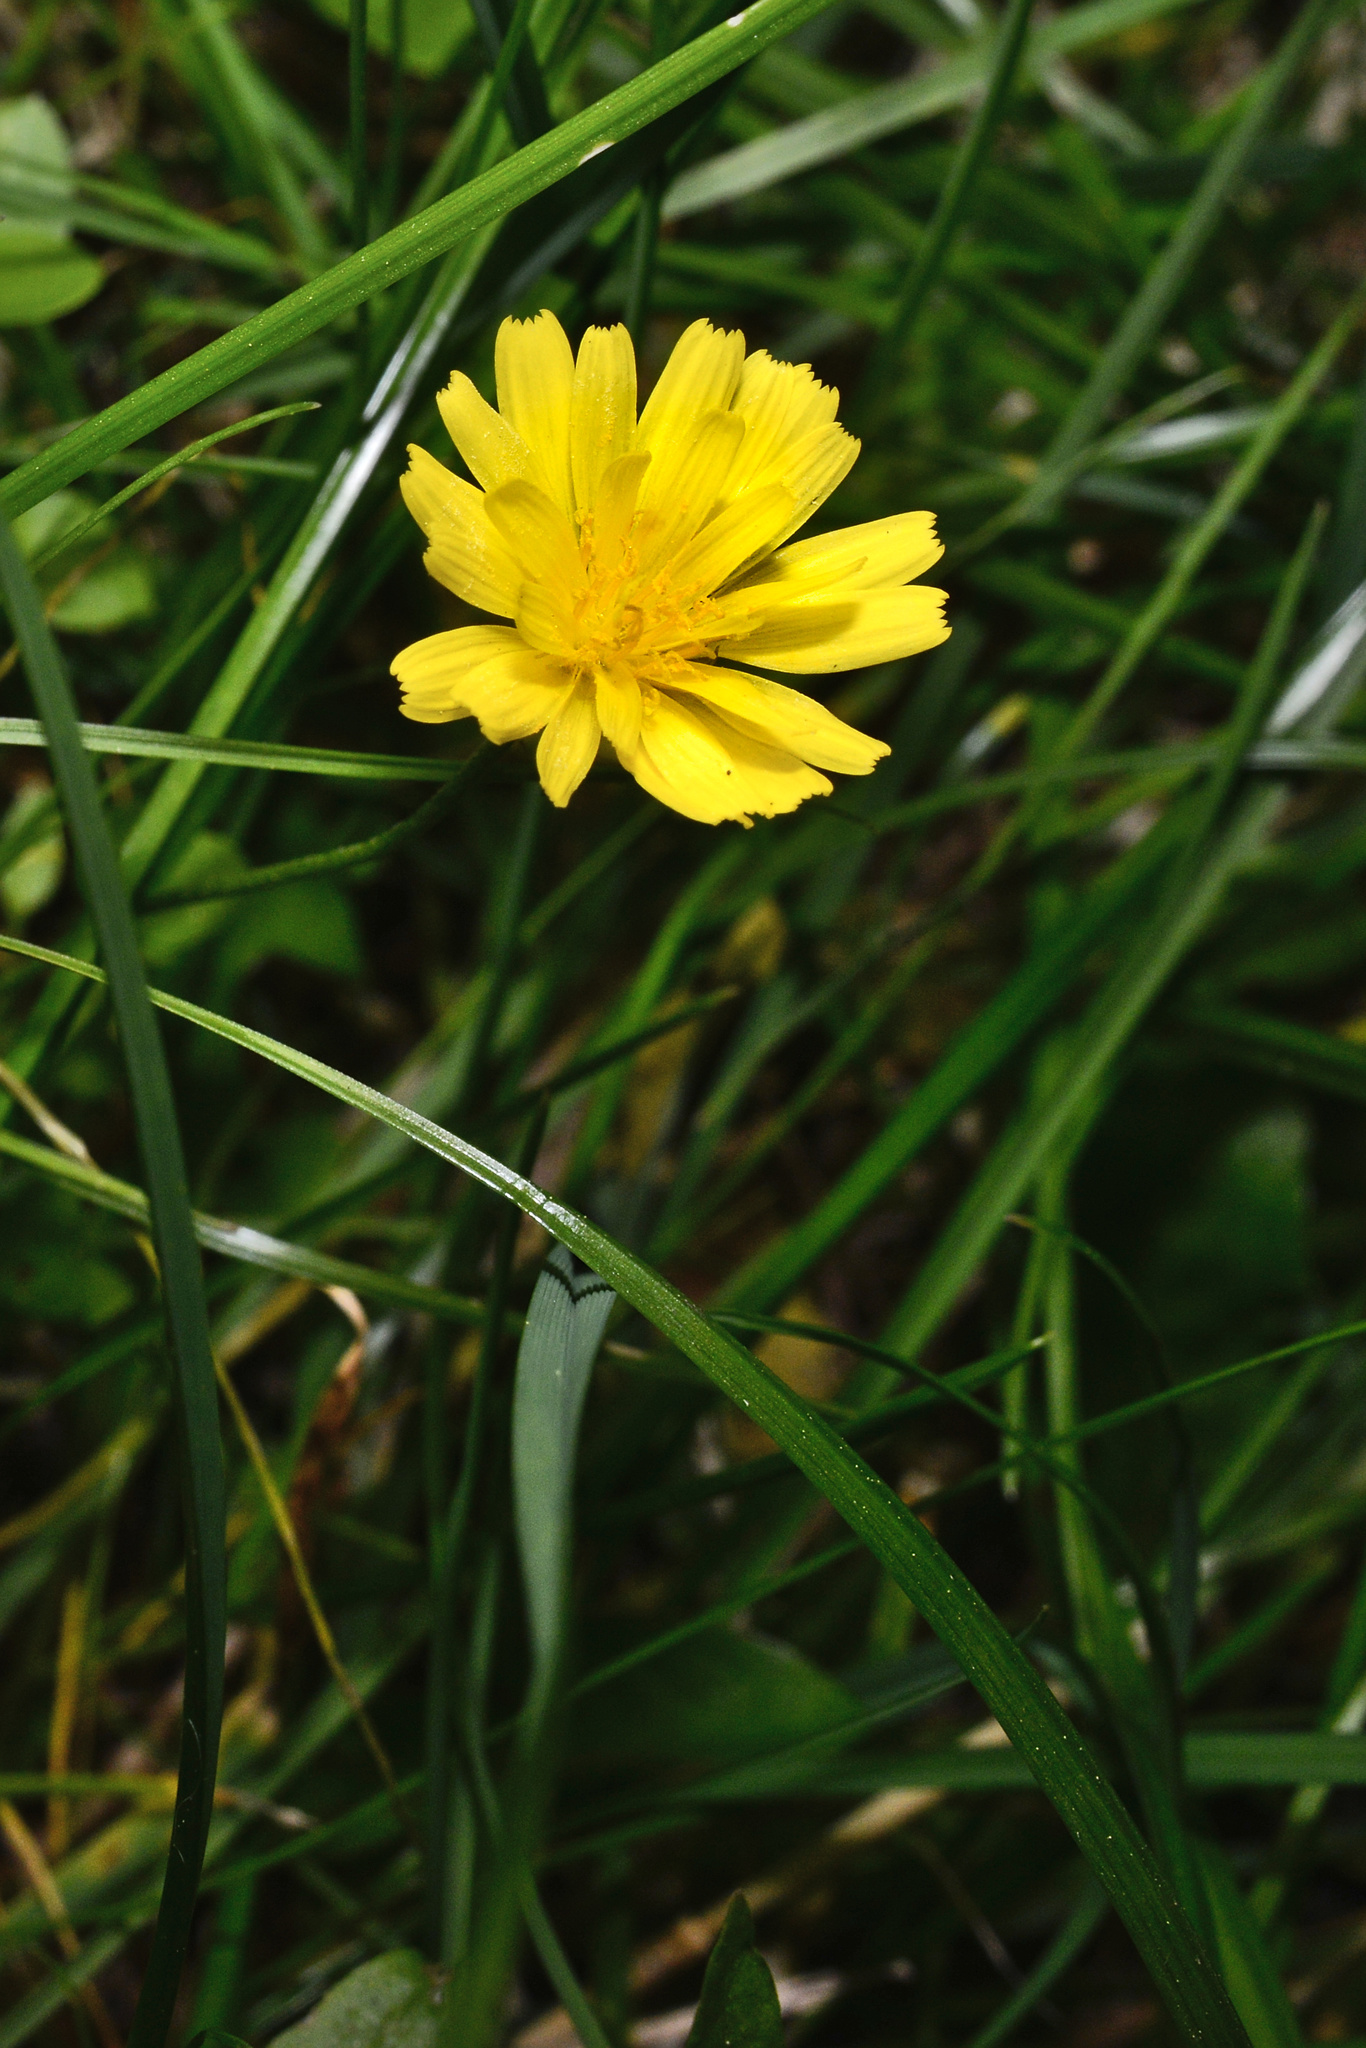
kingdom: Plantae
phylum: Tracheophyta
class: Magnoliopsida
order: Asterales
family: Asteraceae
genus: Crepis
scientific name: Crepis capillaris
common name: Smooth hawksbeard
